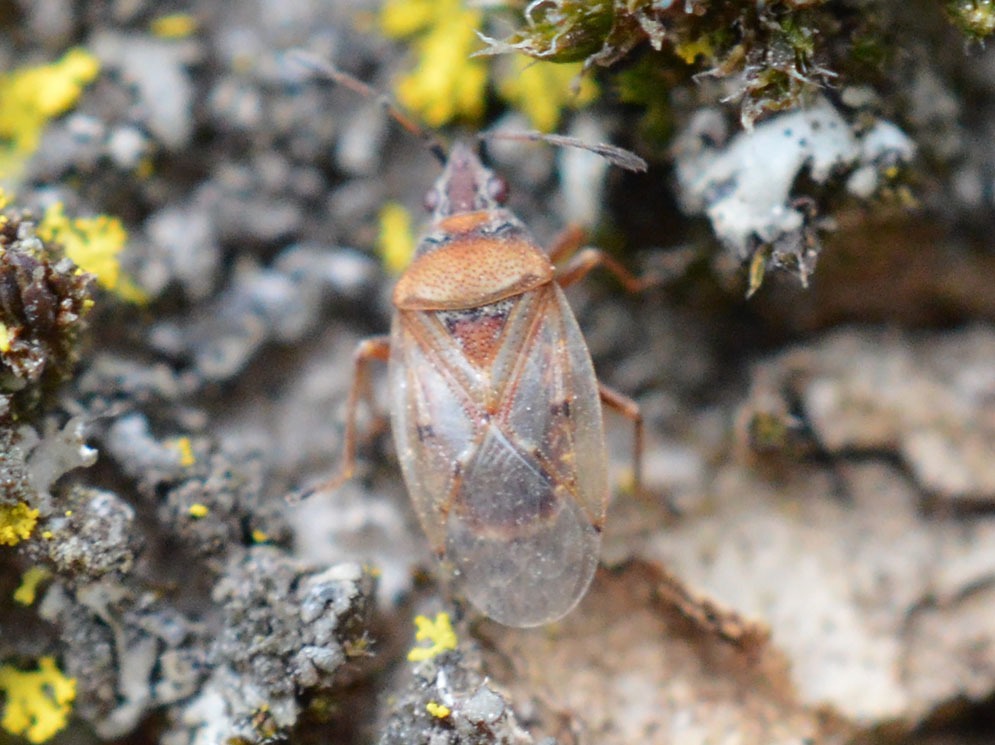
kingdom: Animalia
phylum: Arthropoda
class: Insecta
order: Hemiptera
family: Lygaeidae
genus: Kleidocerys
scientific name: Kleidocerys resedae
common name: Birch catkin bug
